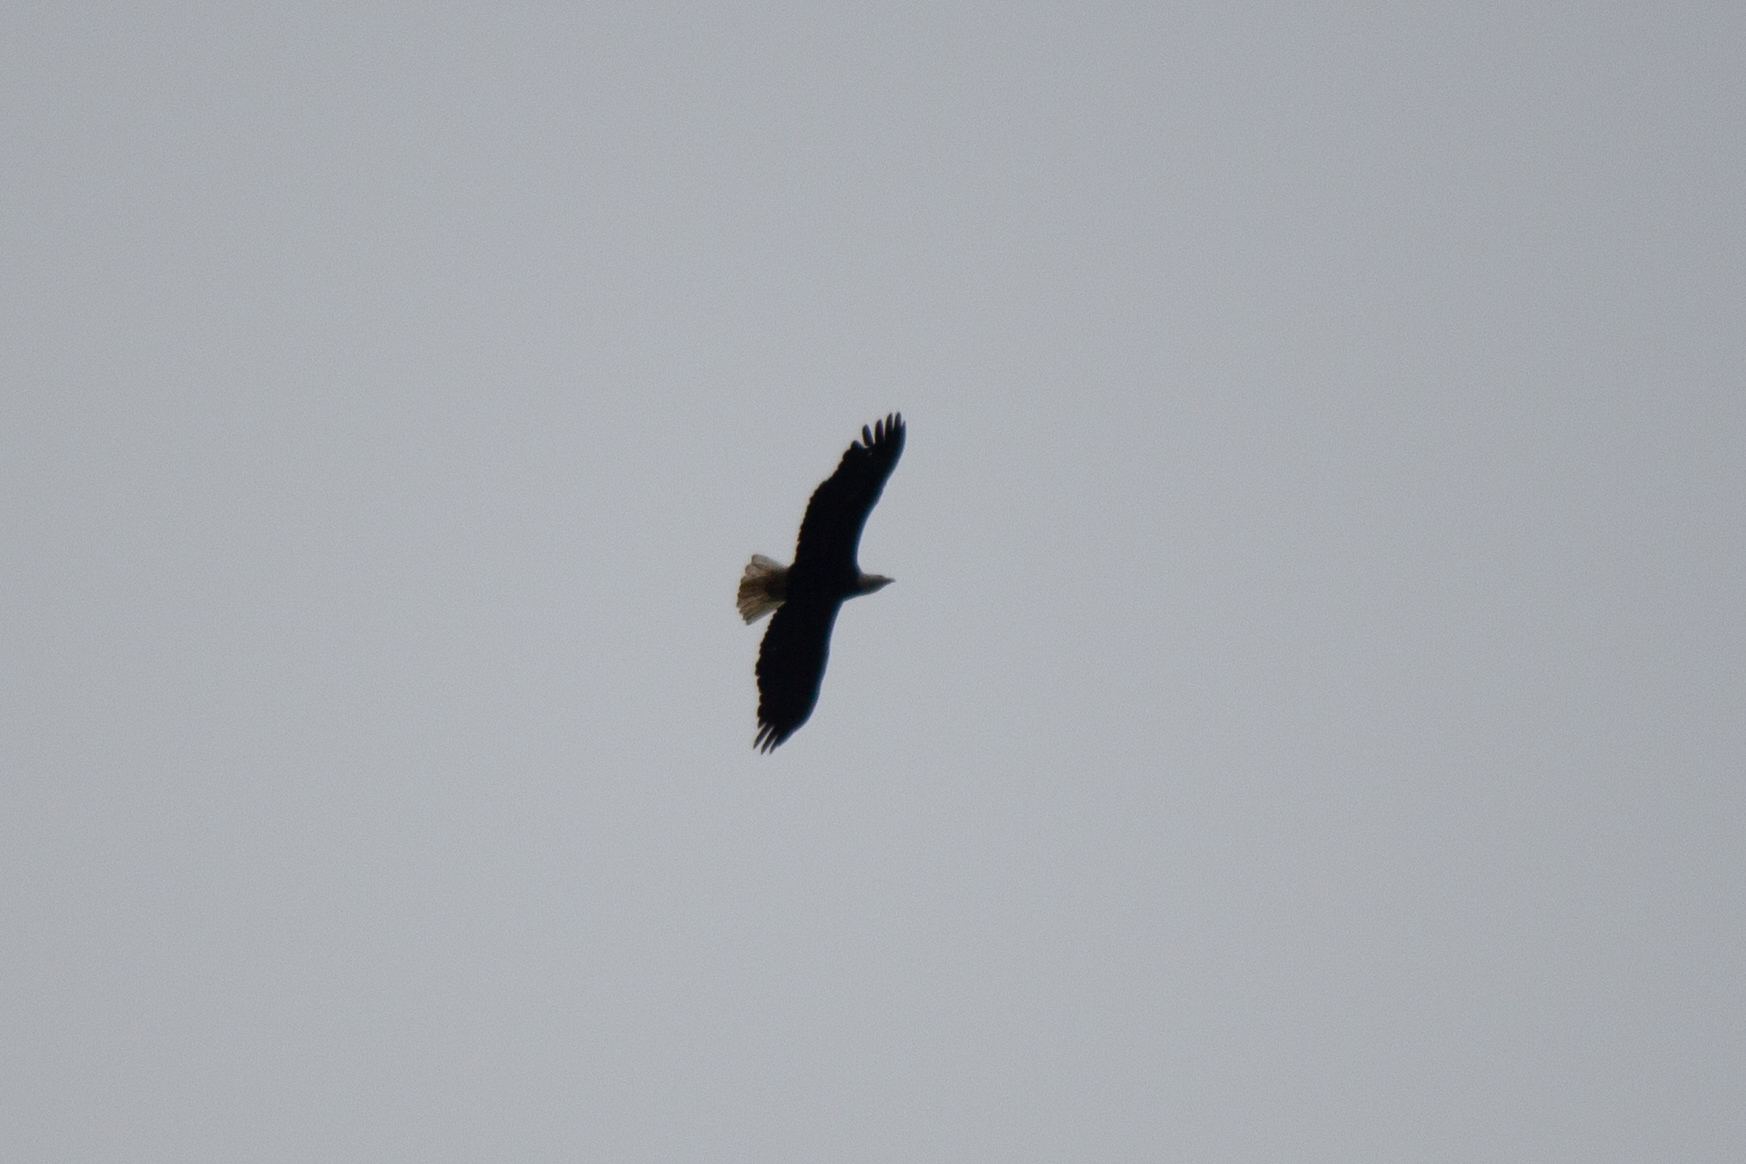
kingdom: Animalia
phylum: Chordata
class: Aves
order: Accipitriformes
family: Accipitridae
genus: Haliaeetus
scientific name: Haliaeetus leucocephalus
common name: Bald eagle
